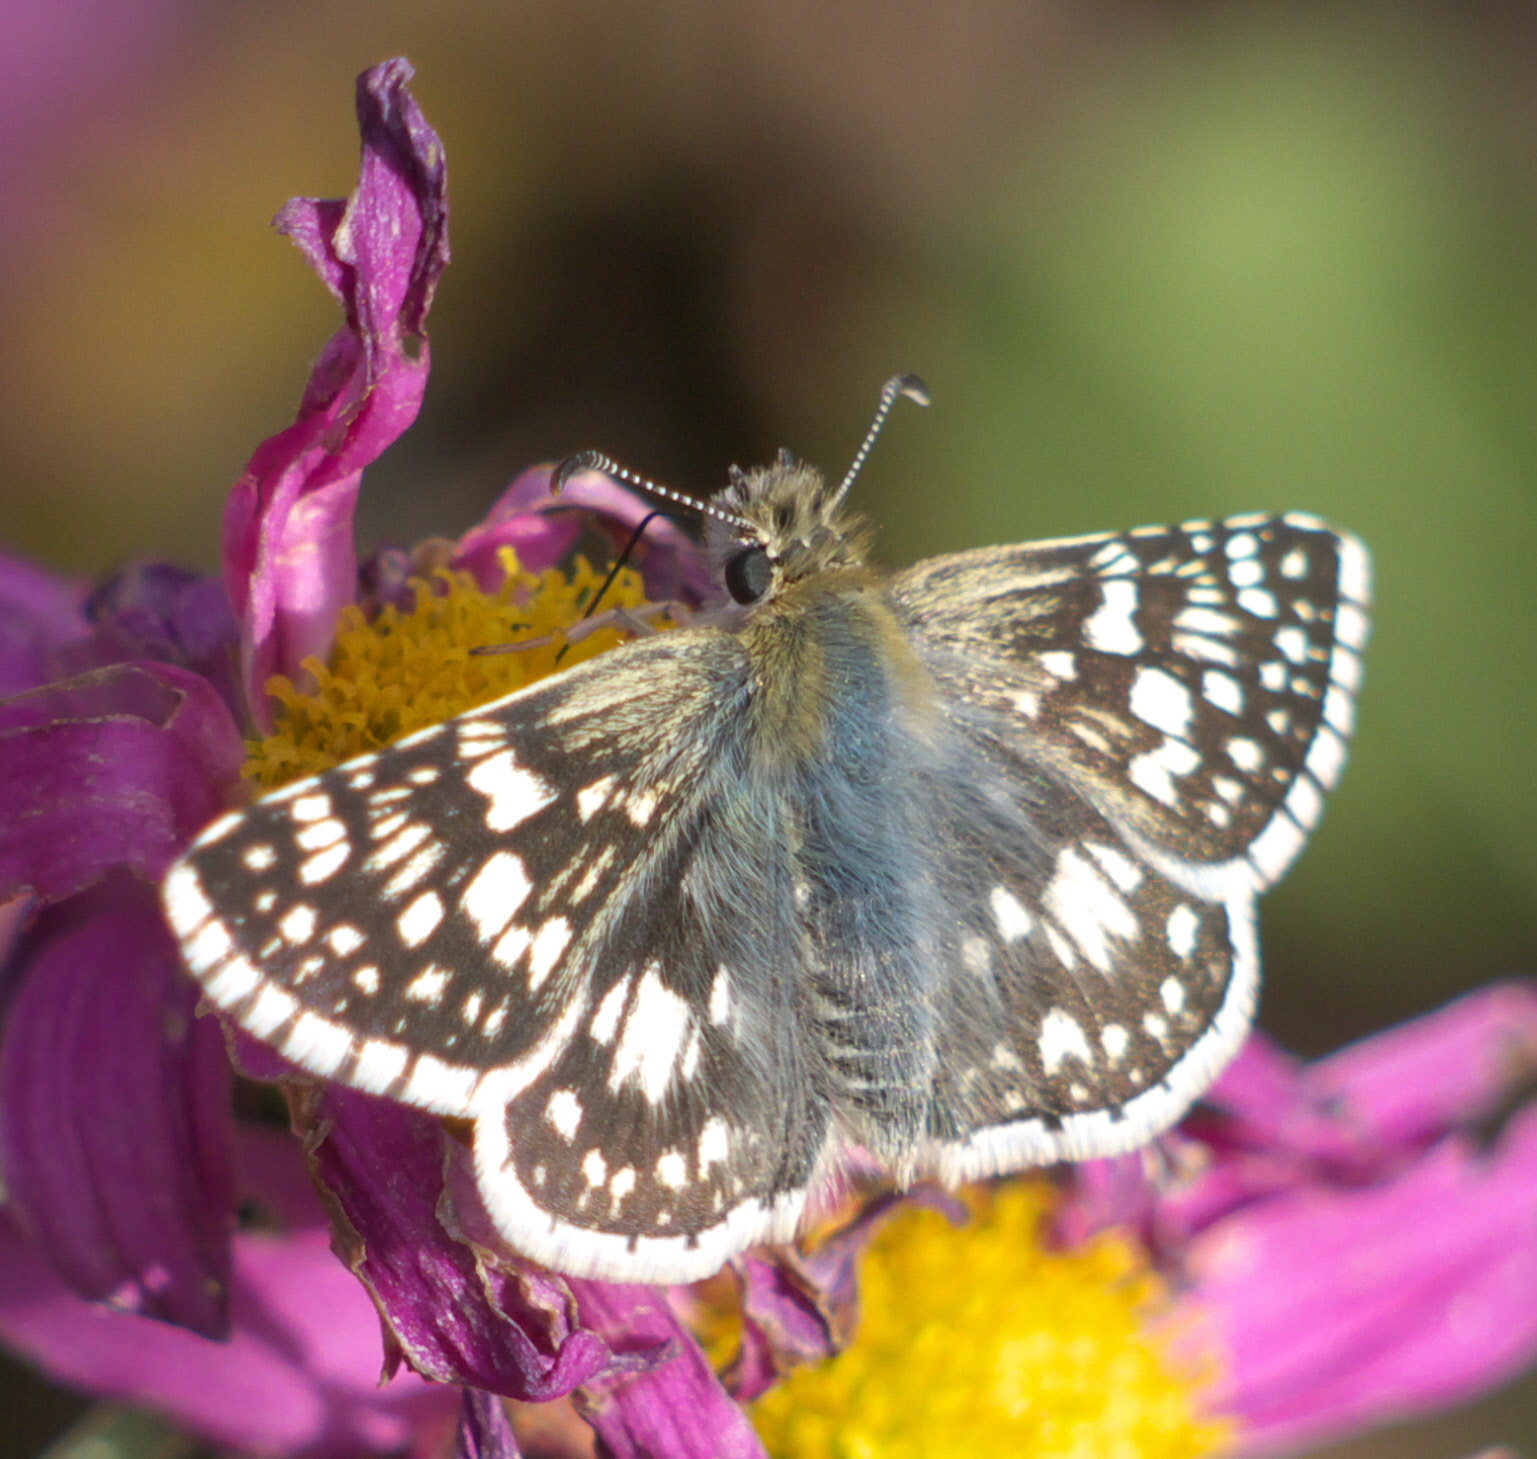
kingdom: Animalia
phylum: Arthropoda
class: Insecta
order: Lepidoptera
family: Hesperiidae
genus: Burnsius
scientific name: Burnsius communis
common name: Common checkered-skipper
